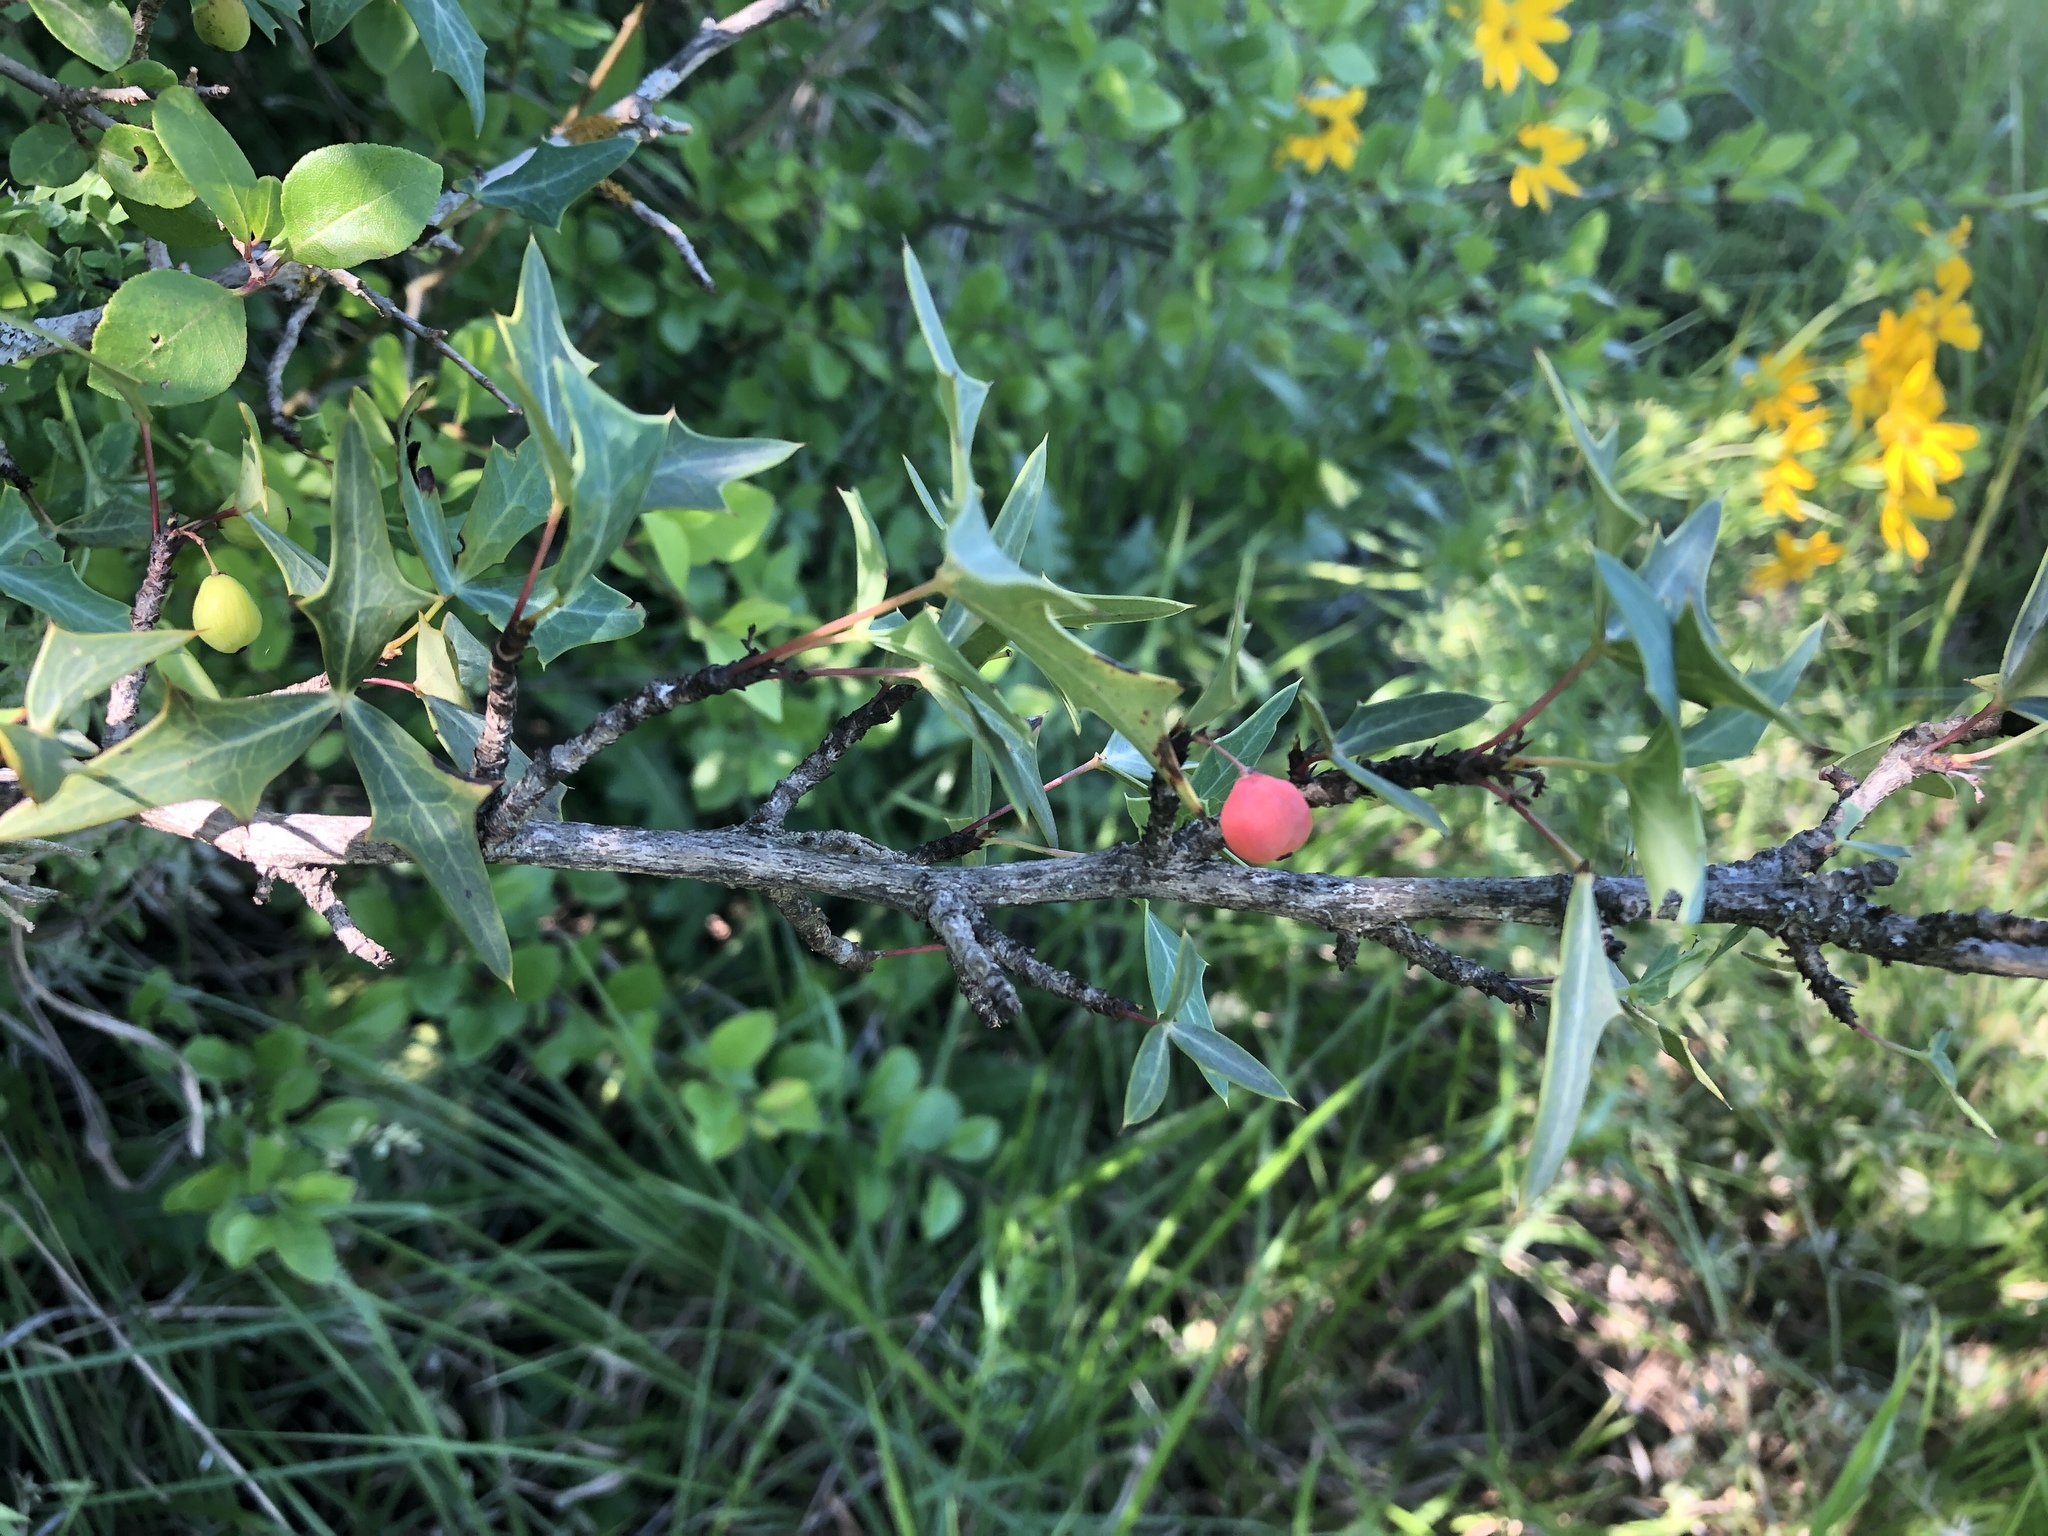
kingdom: Plantae
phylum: Tracheophyta
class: Magnoliopsida
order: Ranunculales
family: Berberidaceae
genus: Alloberberis
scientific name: Alloberberis trifoliolata
